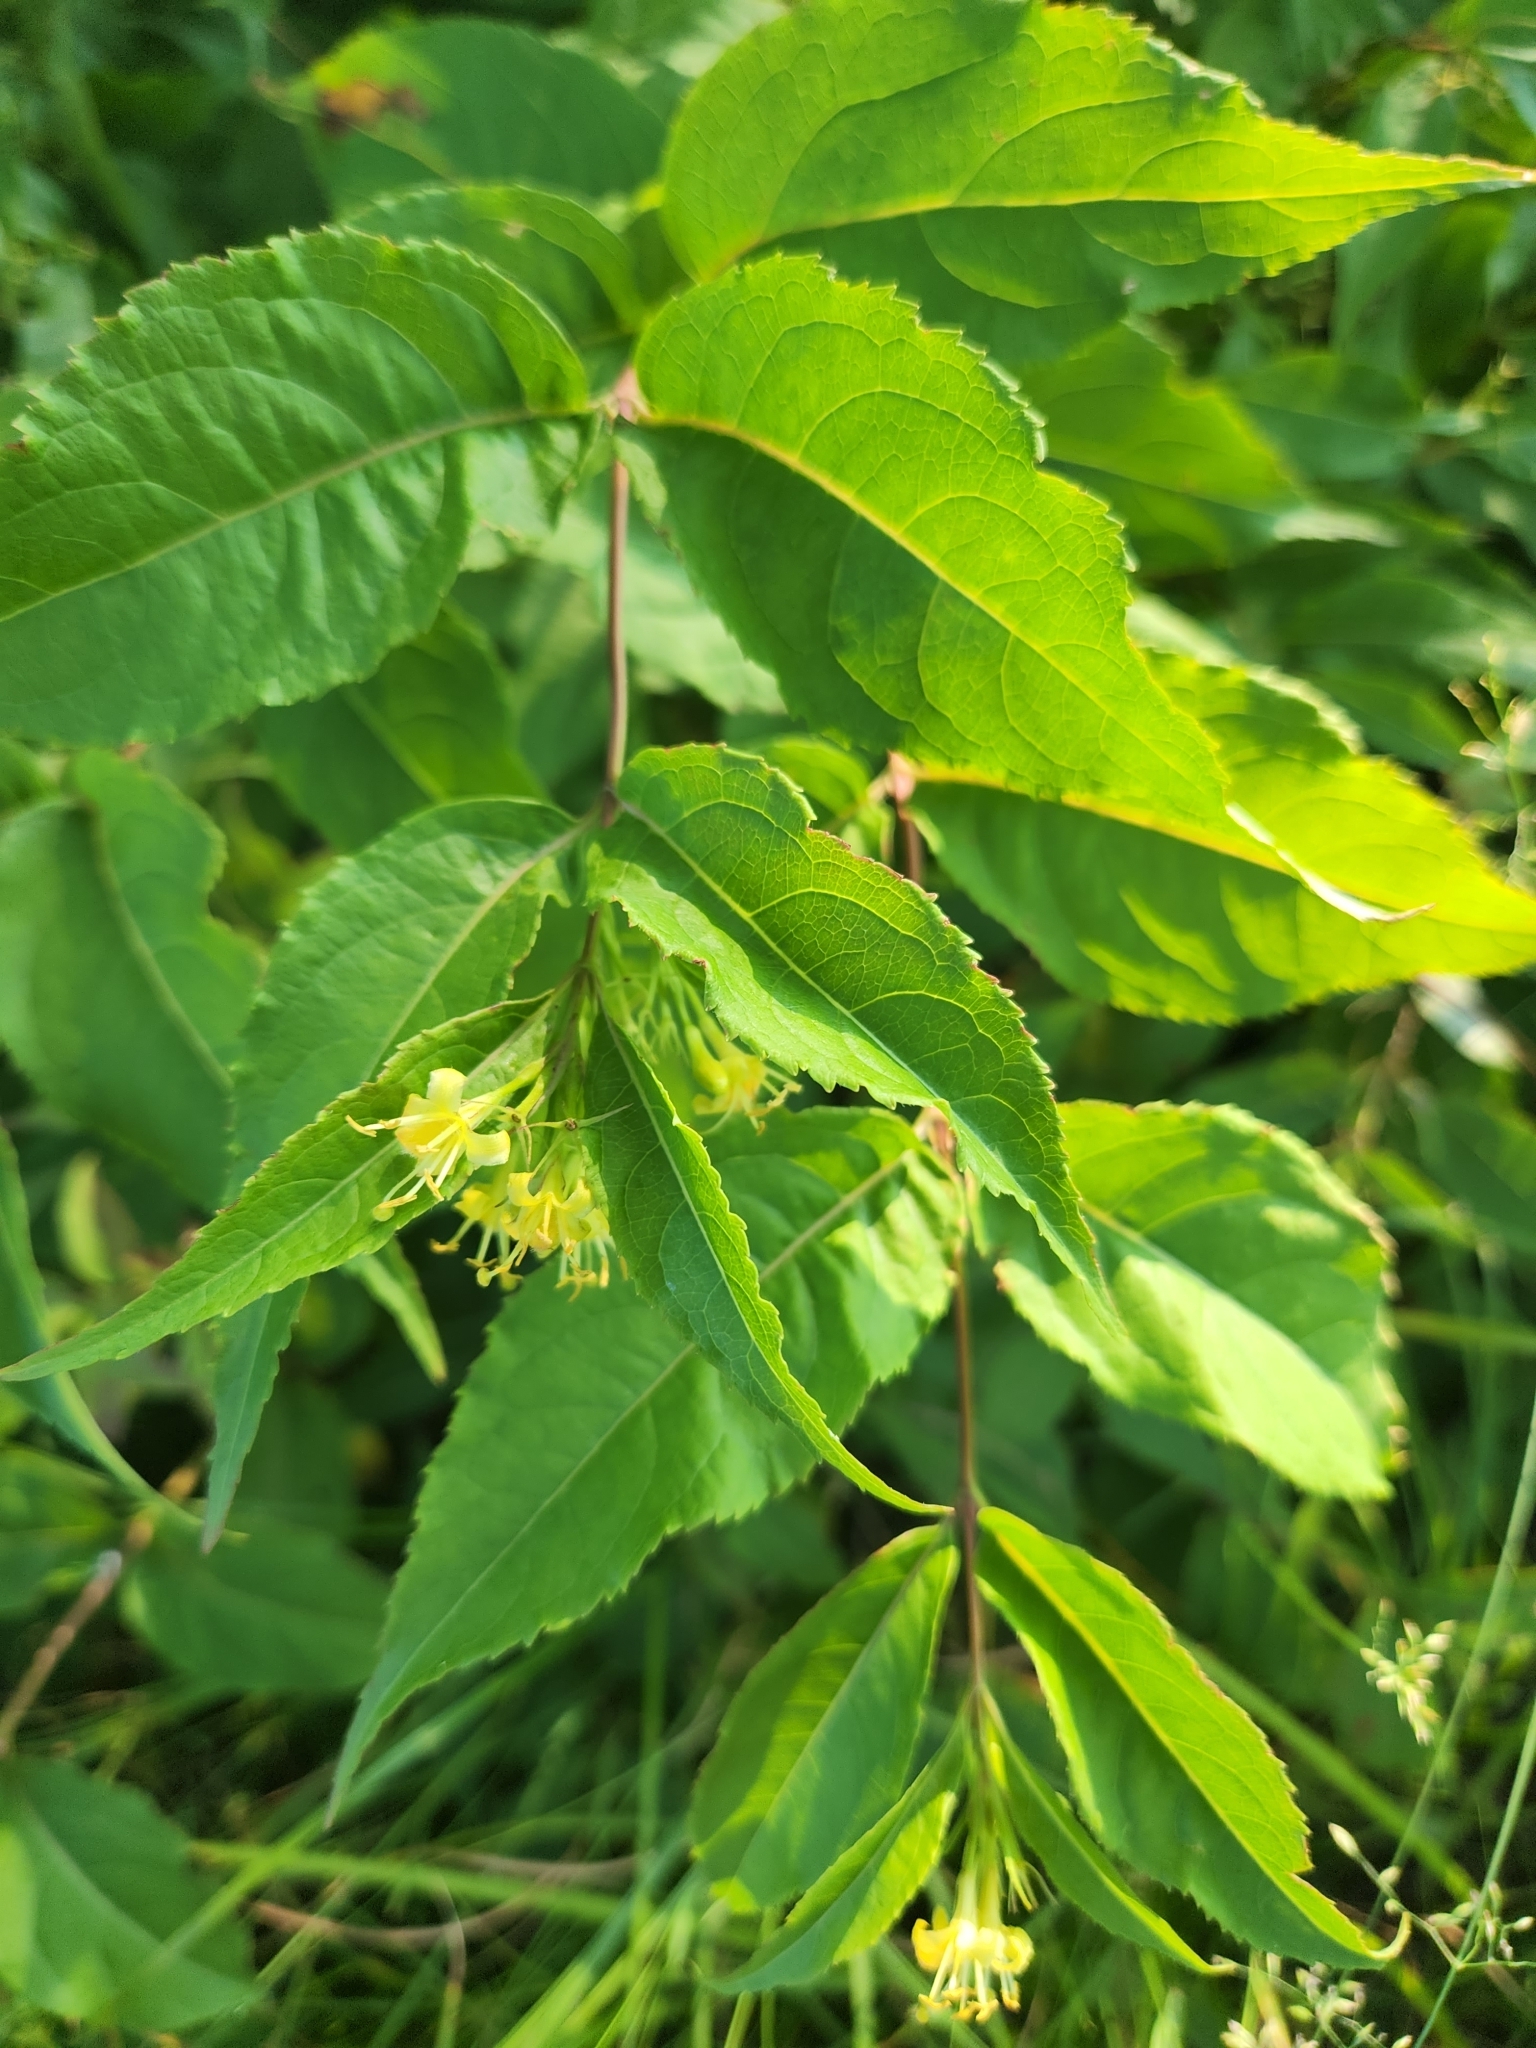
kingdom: Plantae
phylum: Tracheophyta
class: Magnoliopsida
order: Dipsacales
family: Caprifoliaceae
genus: Diervilla
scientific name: Diervilla lonicera
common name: Bush-honeysuckle
